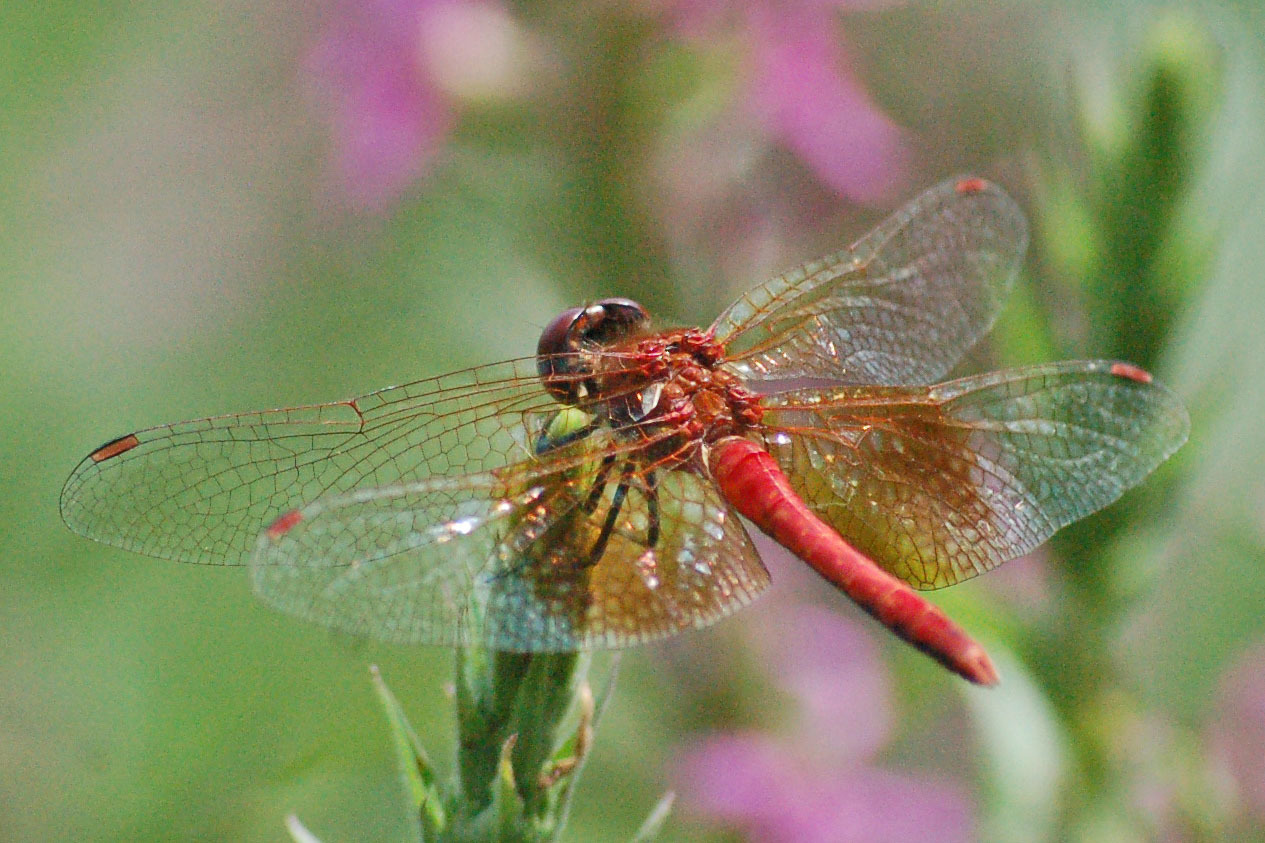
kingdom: Animalia
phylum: Arthropoda
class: Insecta
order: Odonata
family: Libellulidae
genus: Sympetrum
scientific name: Sympetrum semicinctum
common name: Band-winged meadowhawk
